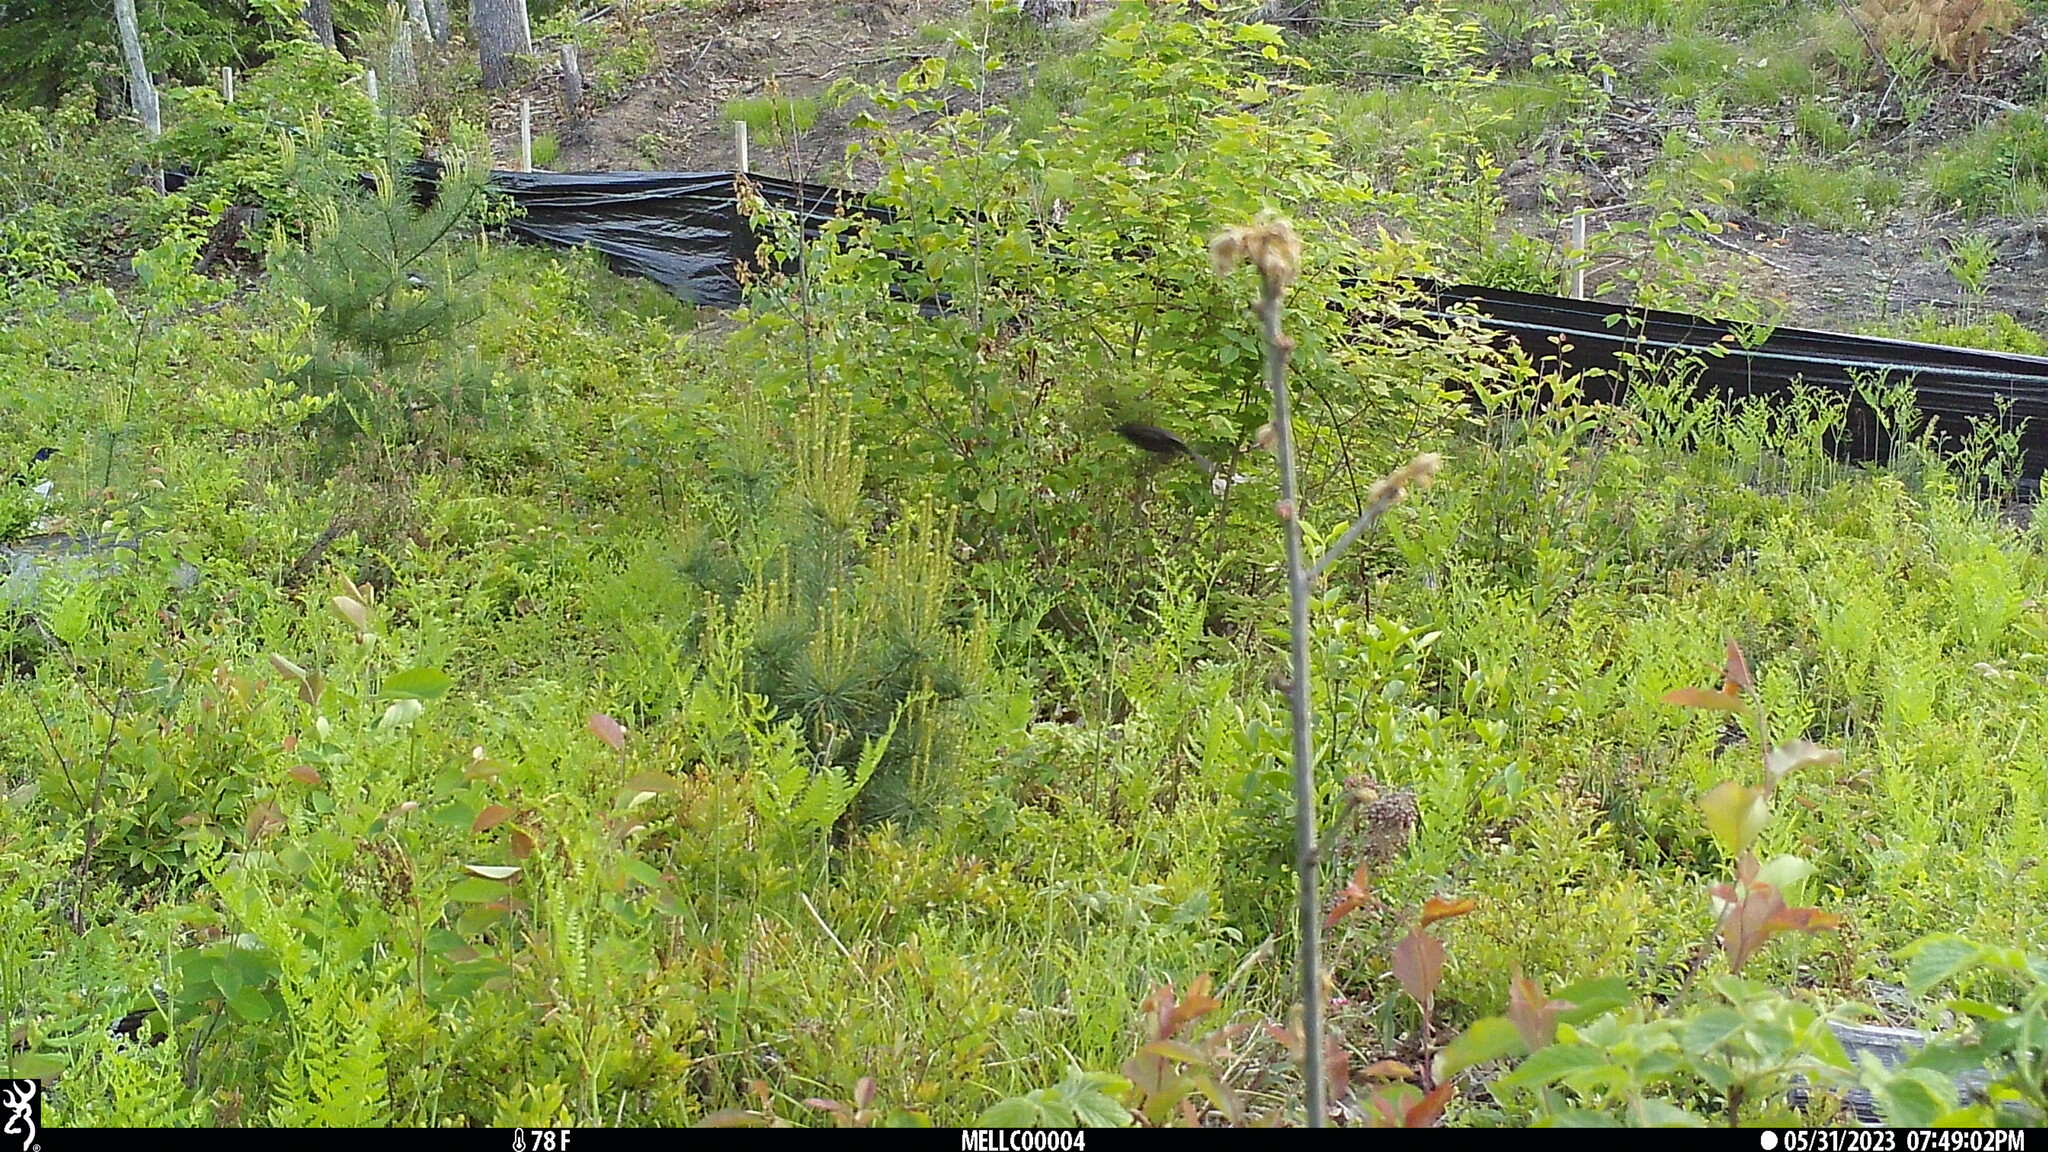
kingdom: Animalia
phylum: Chordata
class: Aves
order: Passeriformes
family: Icteridae
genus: Quiscalus
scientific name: Quiscalus quiscula
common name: Common grackle
